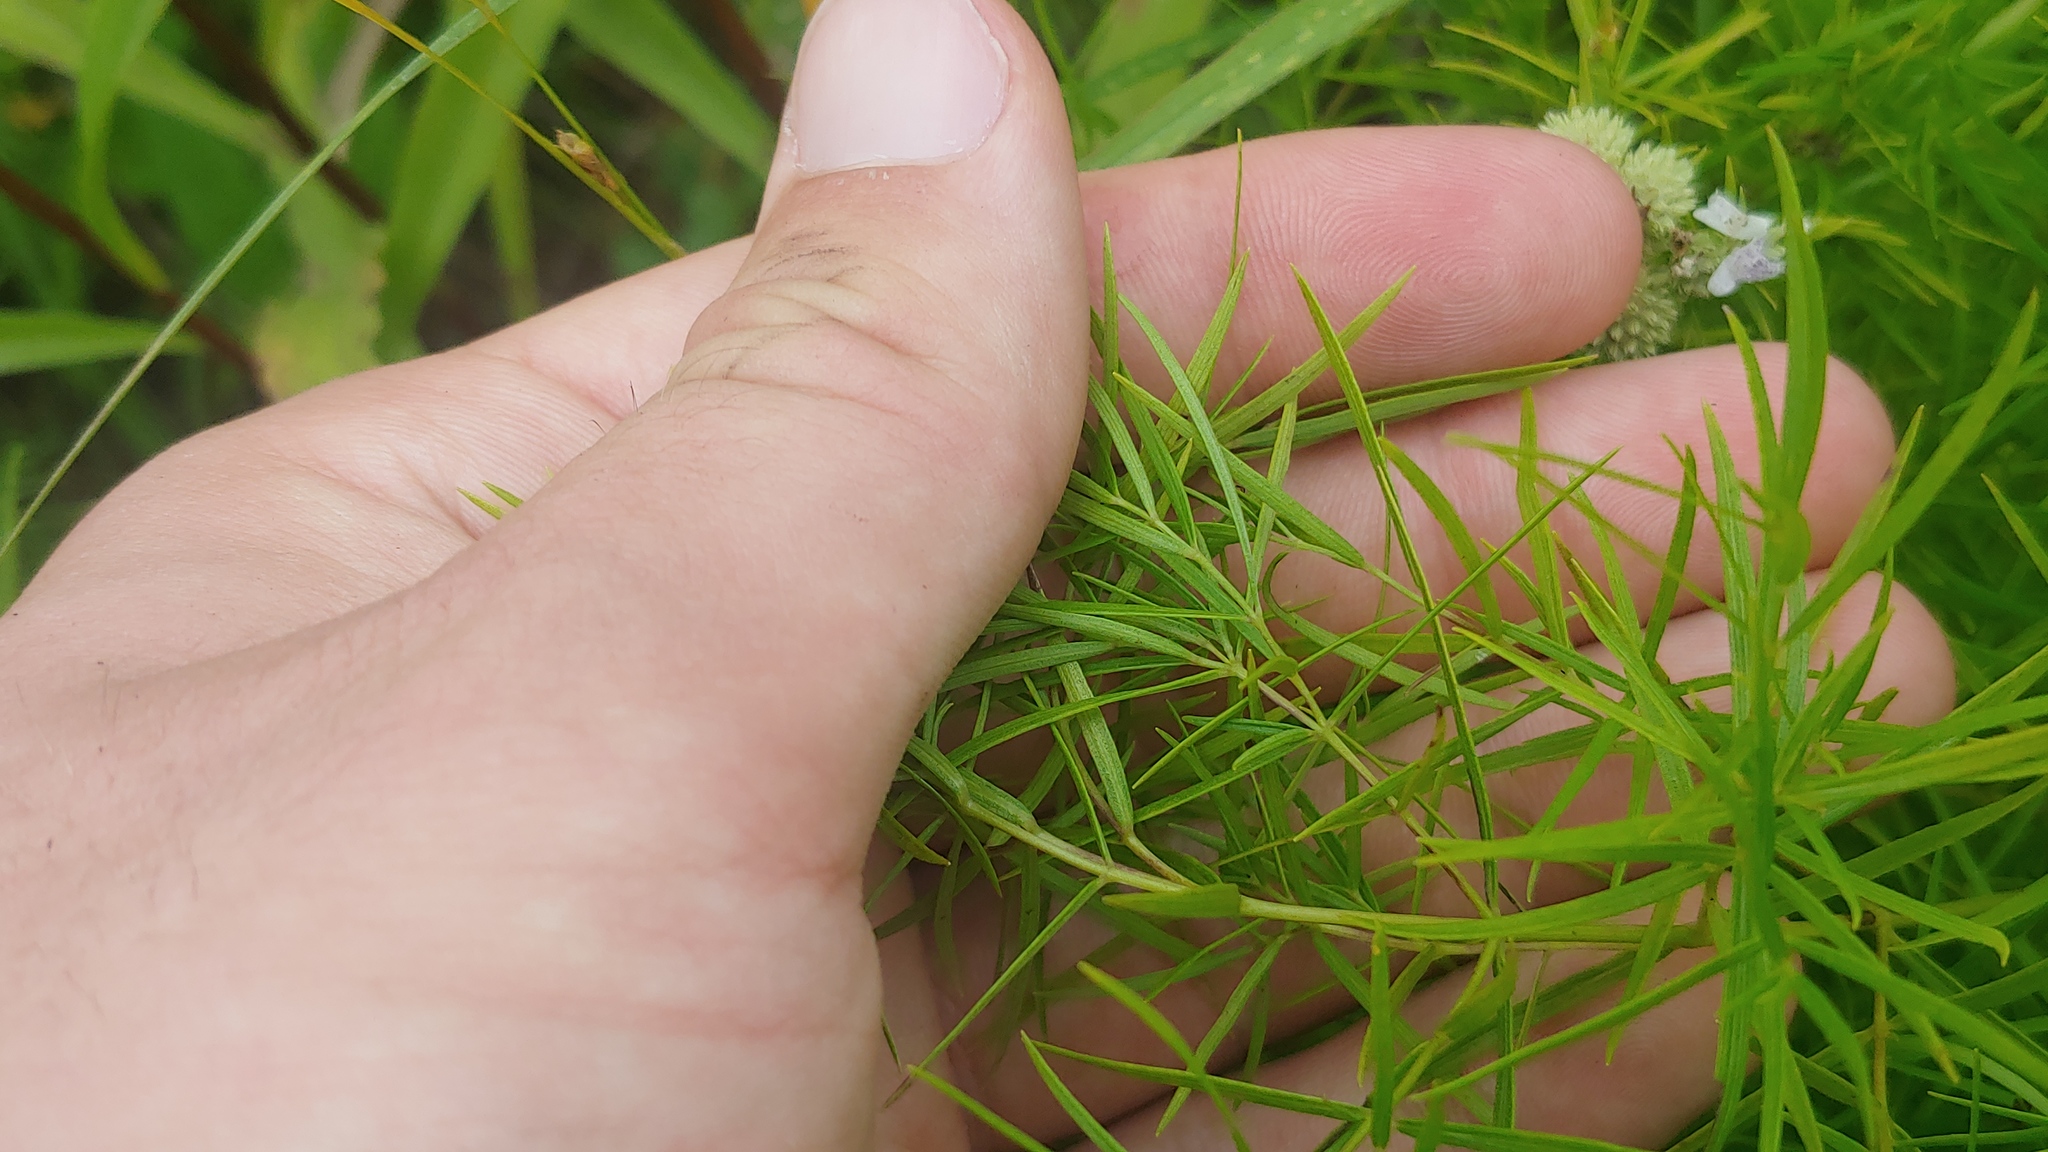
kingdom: Plantae
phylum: Tracheophyta
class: Magnoliopsida
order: Lamiales
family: Lamiaceae
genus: Pycnanthemum
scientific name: Pycnanthemum tenuifolium
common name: Narrow-leaf mountain-mint
